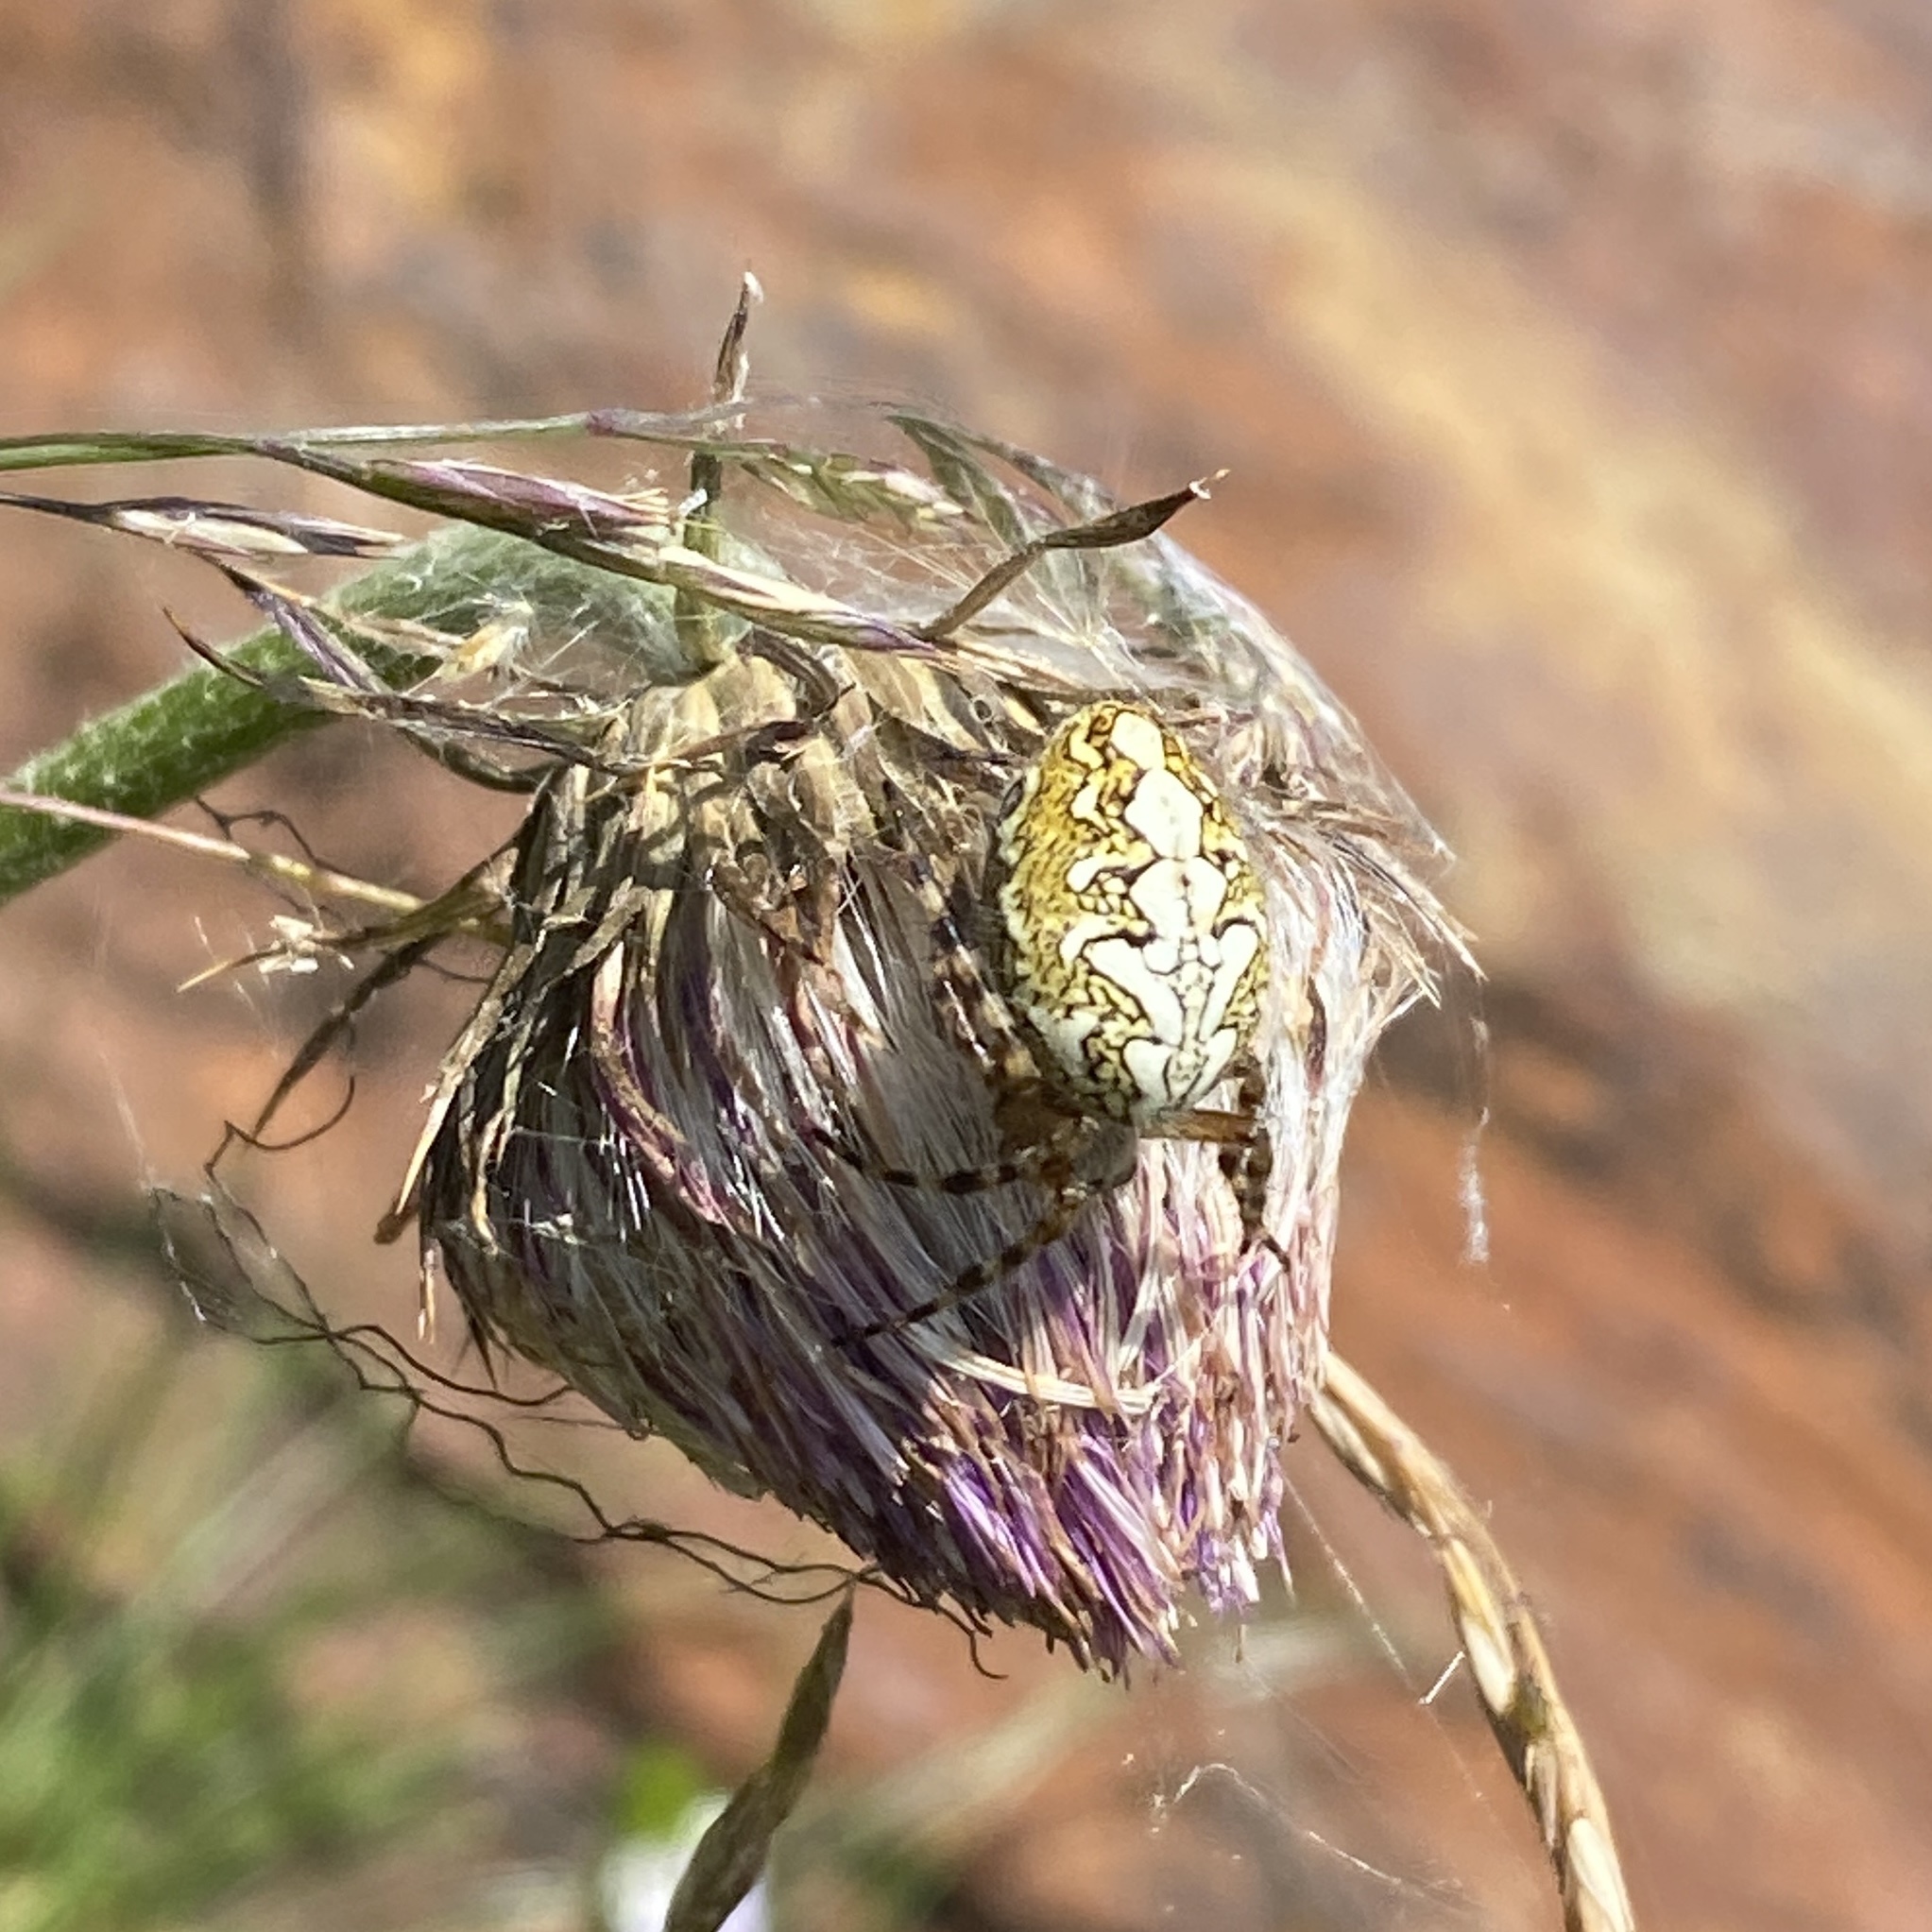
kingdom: Animalia
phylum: Arthropoda
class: Arachnida
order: Araneae
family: Araneidae
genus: Aculepeira
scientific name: Aculepeira ceropegia
